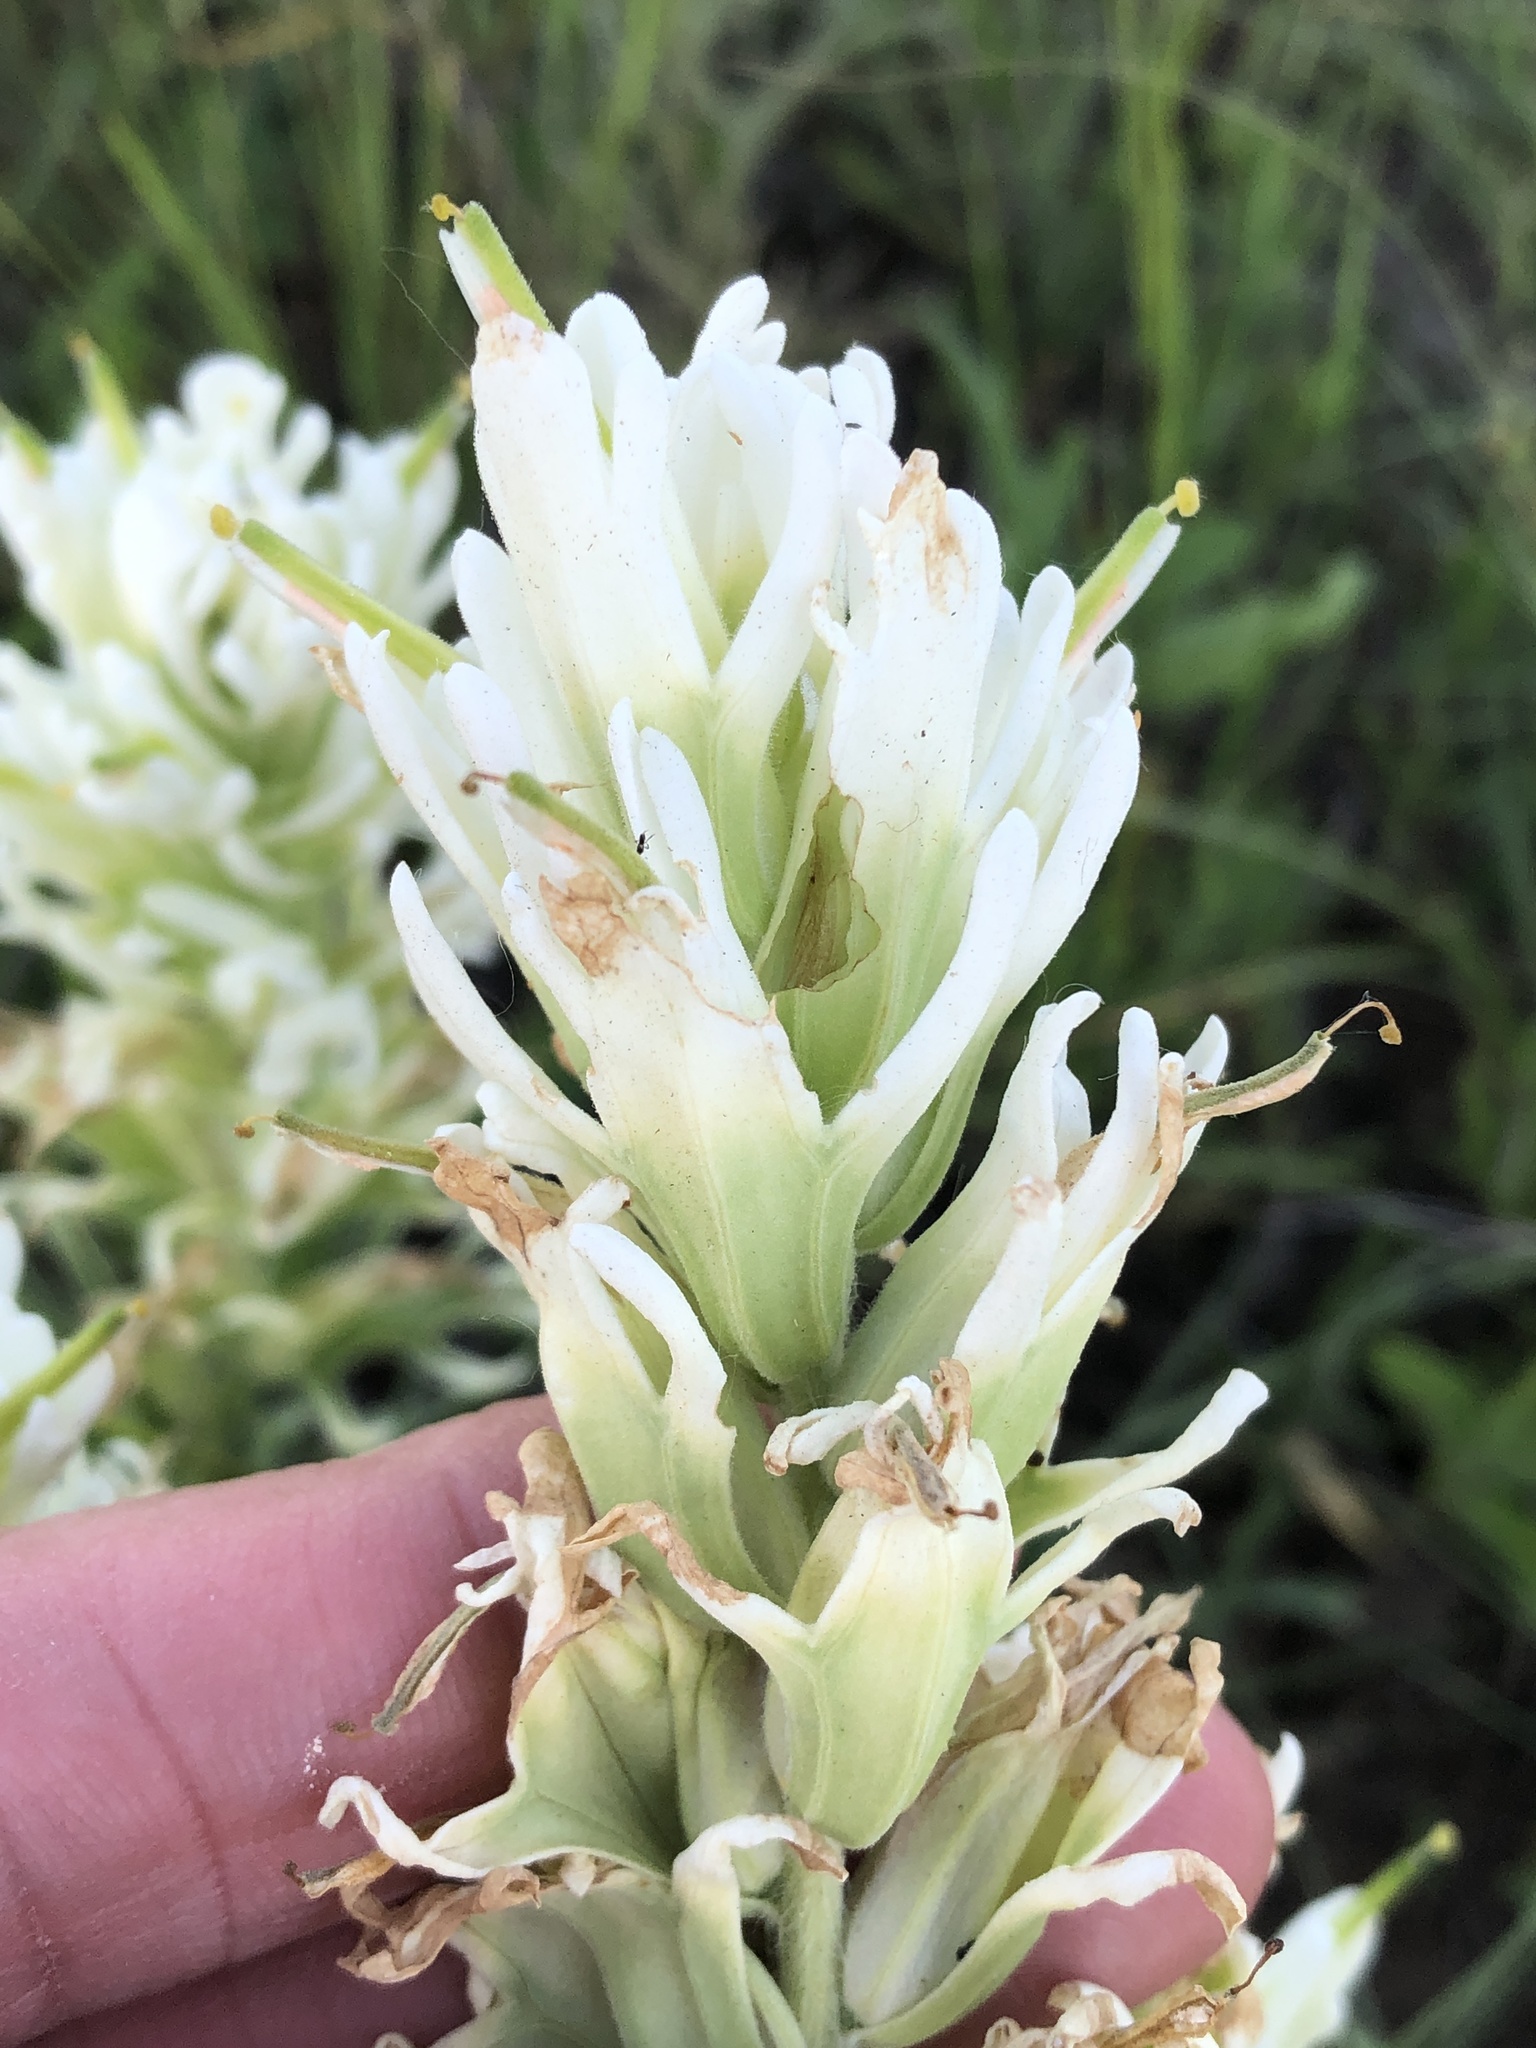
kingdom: Plantae
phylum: Tracheophyta
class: Magnoliopsida
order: Lamiales
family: Orobanchaceae
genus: Castilleja
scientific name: Castilleja purpurea
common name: Plains paintbrush
